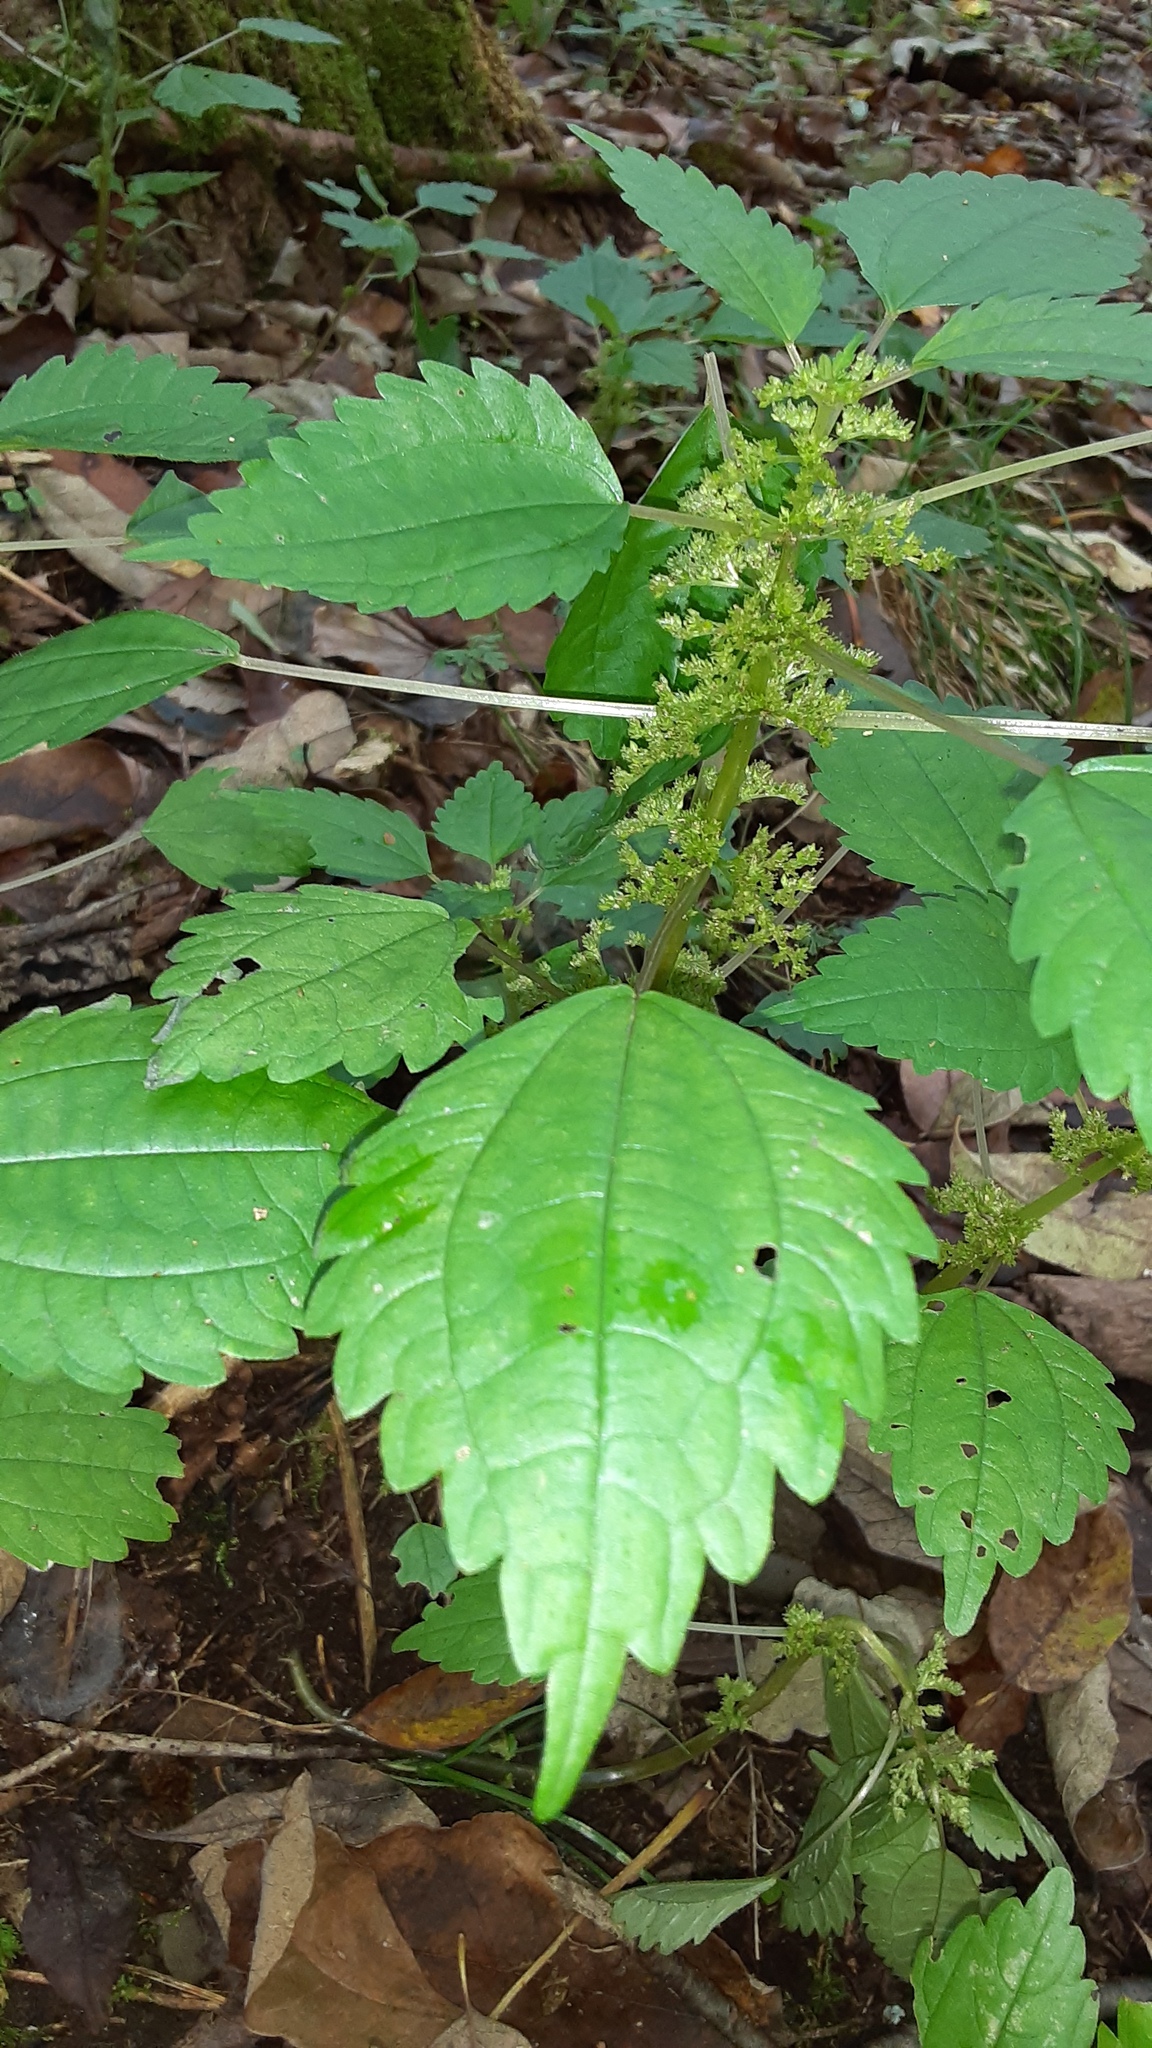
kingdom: Plantae
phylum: Tracheophyta
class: Magnoliopsida
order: Rosales
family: Urticaceae
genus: Pilea
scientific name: Pilea pumila
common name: Clearweed
